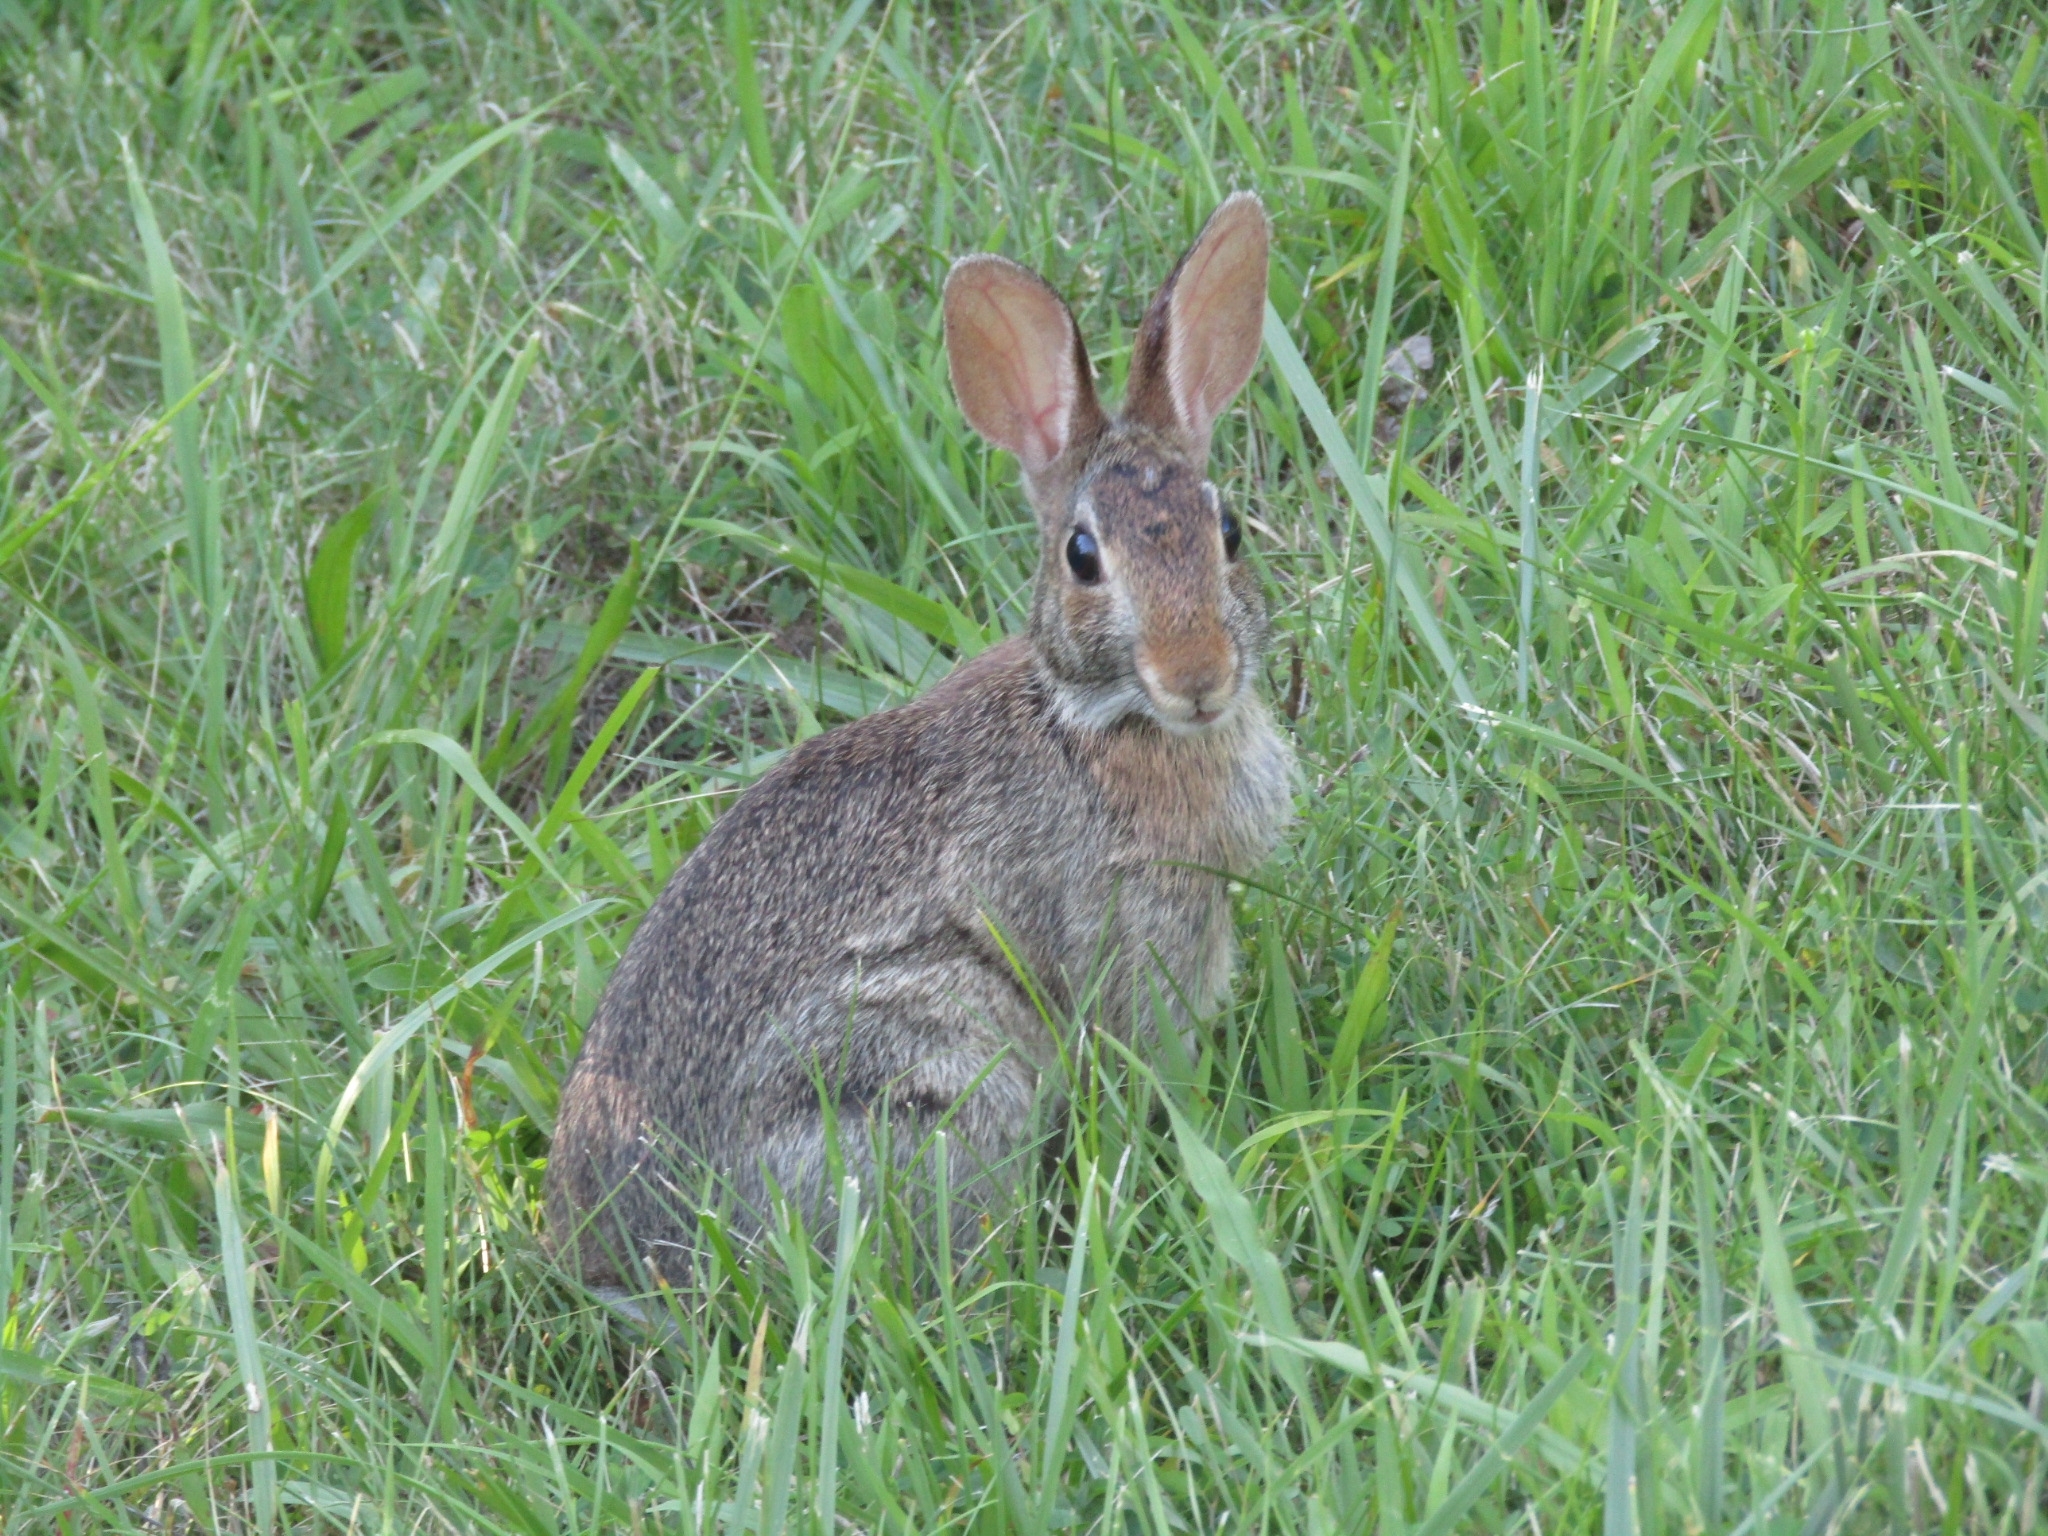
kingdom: Animalia
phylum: Chordata
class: Mammalia
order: Lagomorpha
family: Leporidae
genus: Sylvilagus
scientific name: Sylvilagus floridanus
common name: Eastern cottontail
